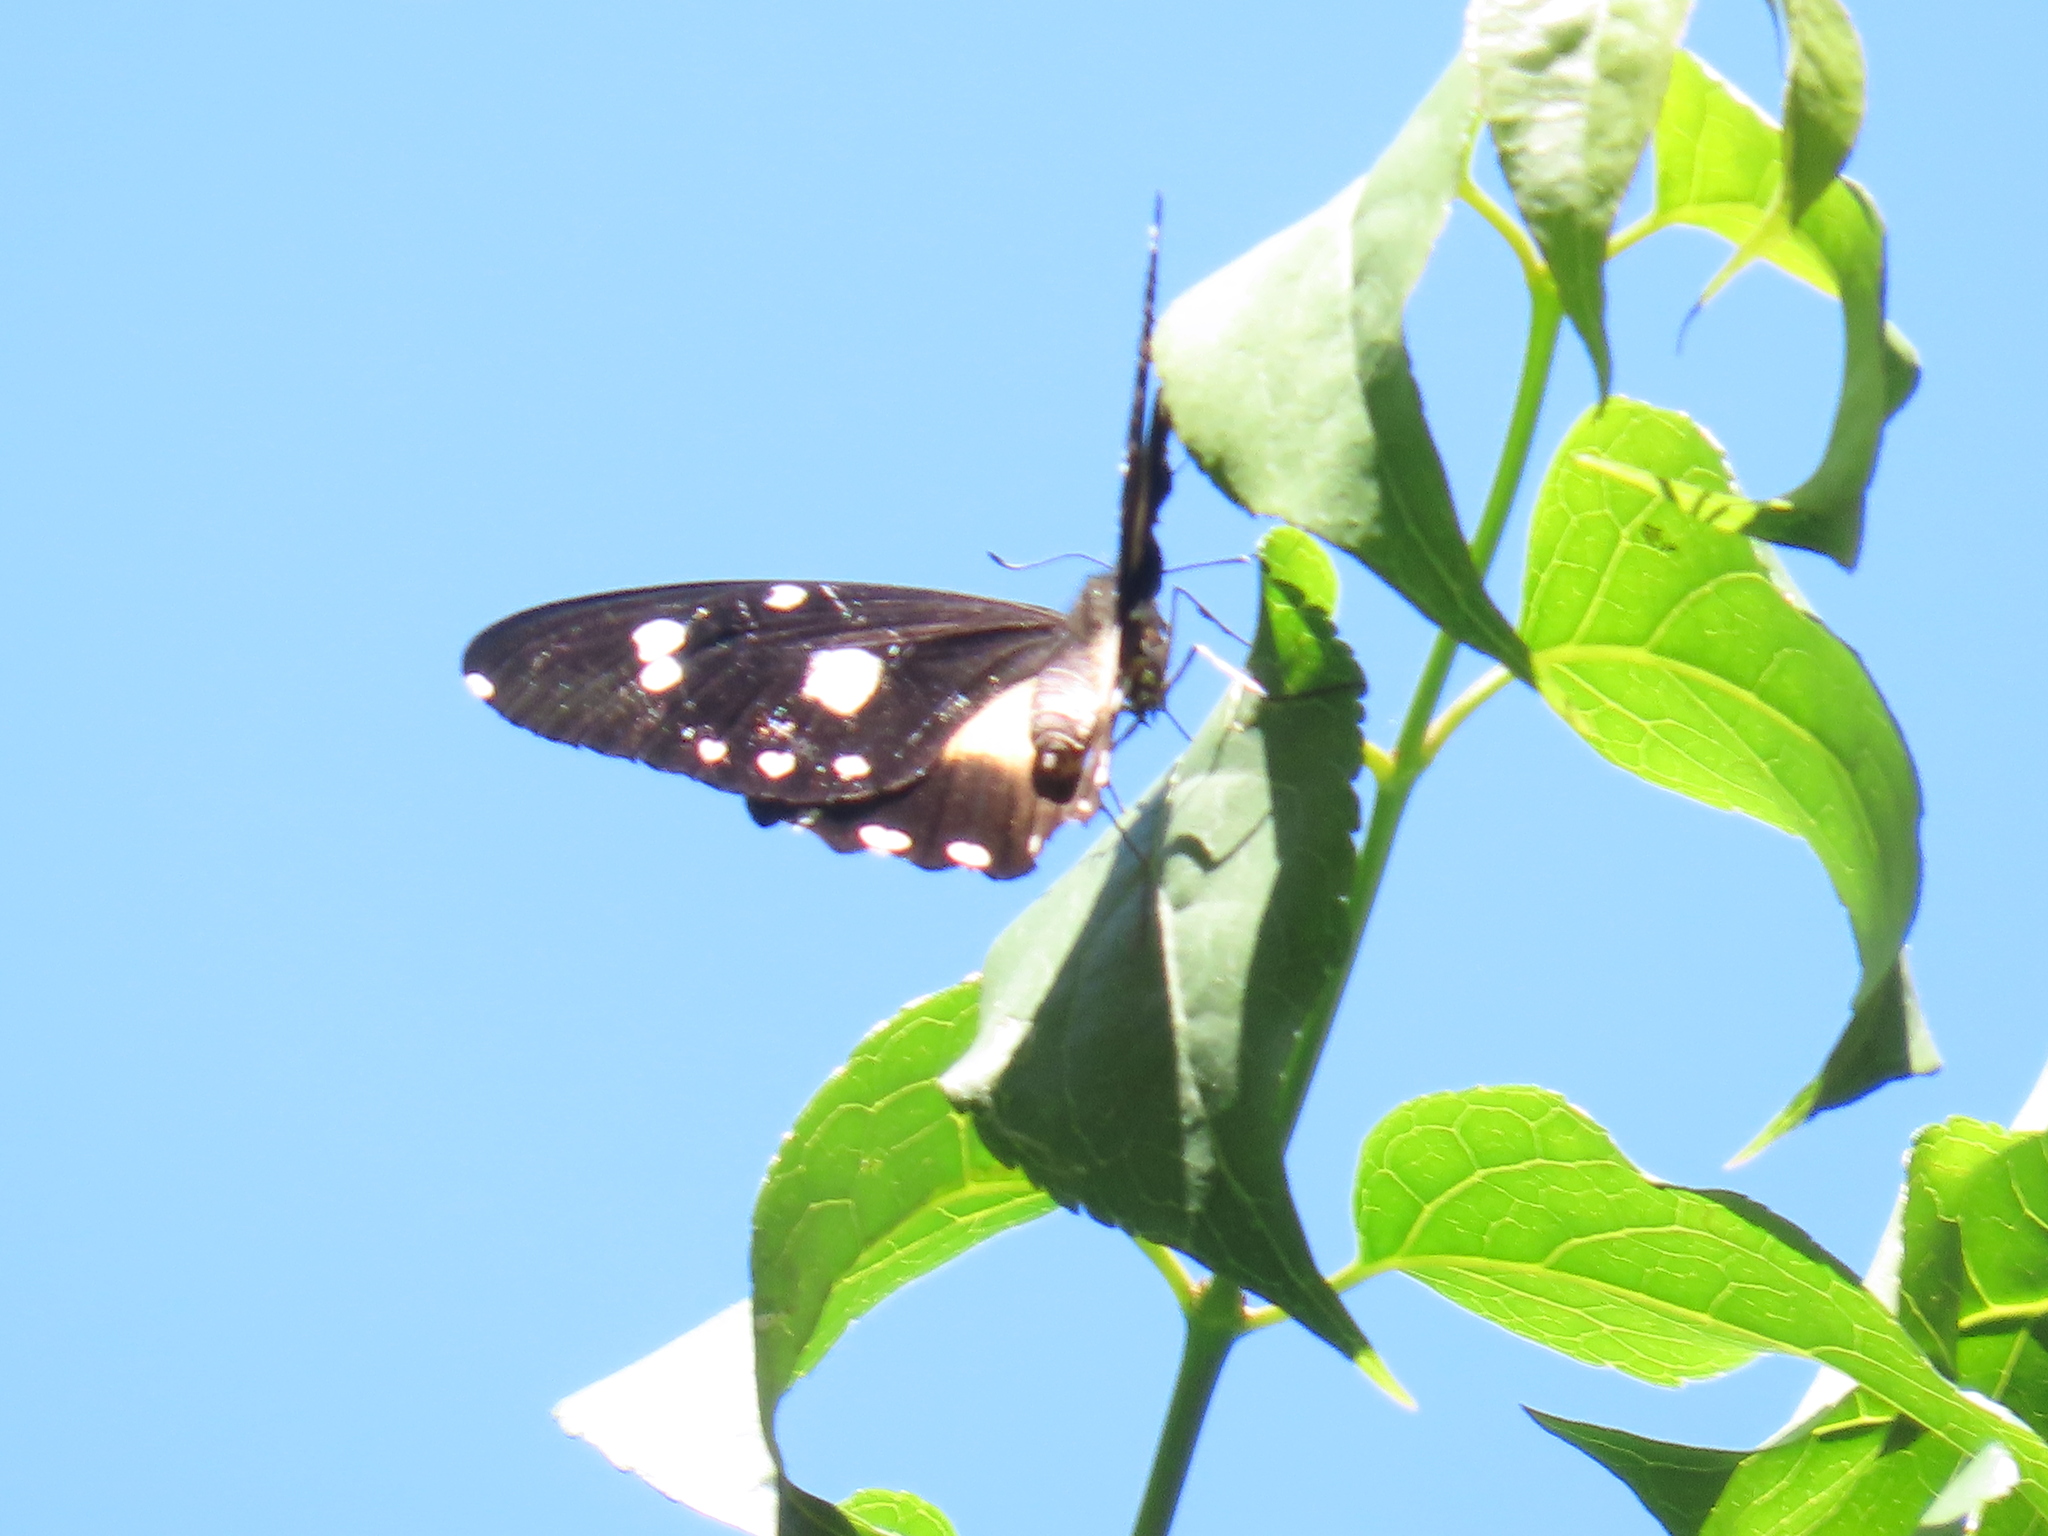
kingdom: Animalia
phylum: Arthropoda
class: Insecta
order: Lepidoptera
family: Papilionidae
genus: Papilio
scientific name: Papilio echerioides
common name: White-banded swallowtail
